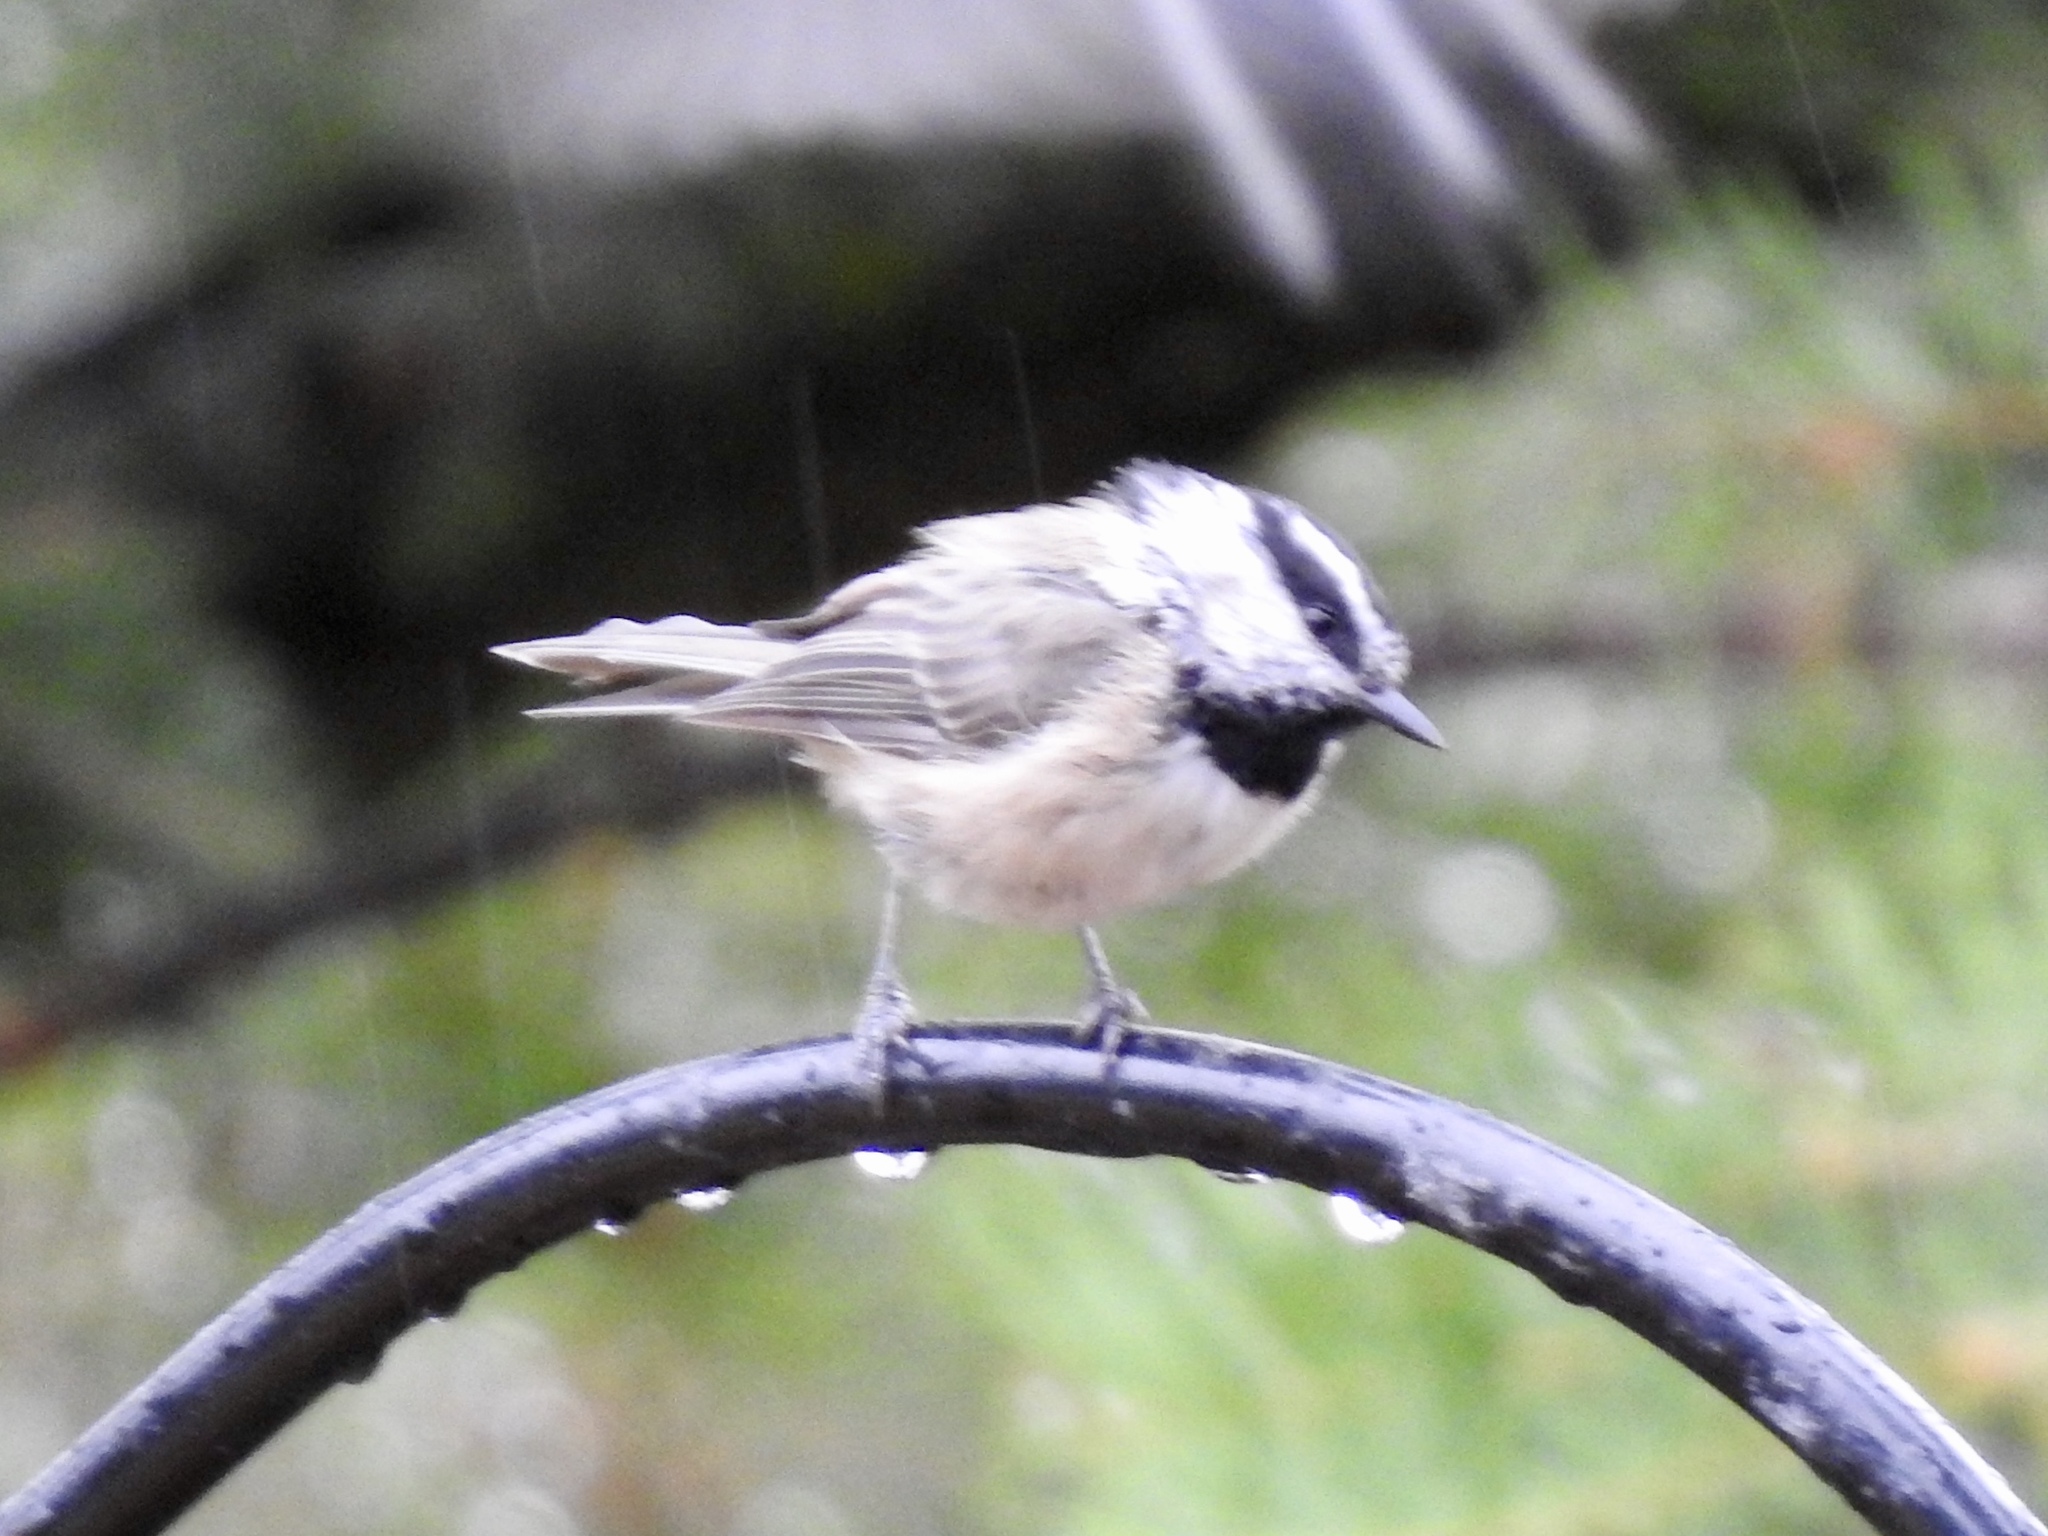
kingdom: Animalia
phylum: Chordata
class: Aves
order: Passeriformes
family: Paridae
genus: Poecile
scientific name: Poecile gambeli
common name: Mountain chickadee
